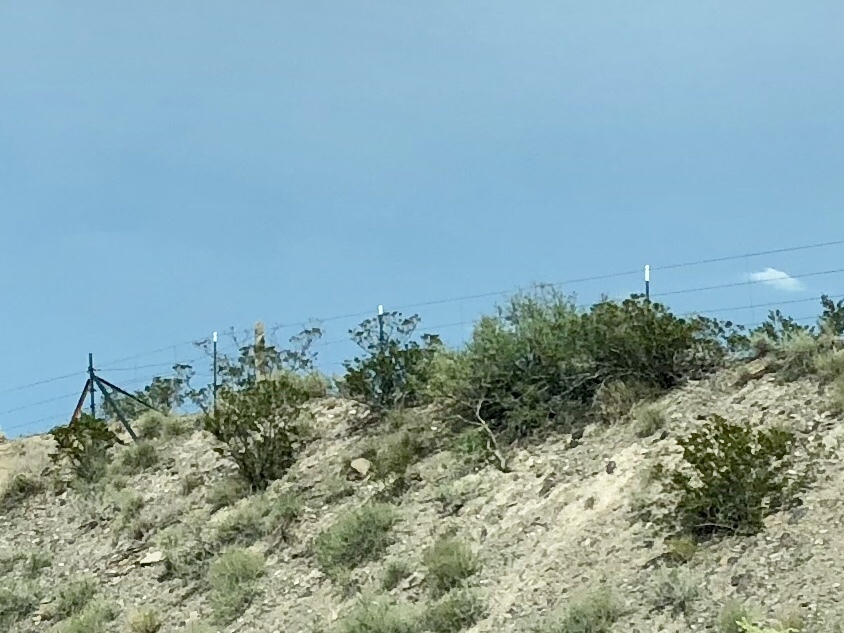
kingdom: Plantae
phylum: Tracheophyta
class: Magnoliopsida
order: Zygophyllales
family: Zygophyllaceae
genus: Larrea
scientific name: Larrea tridentata
